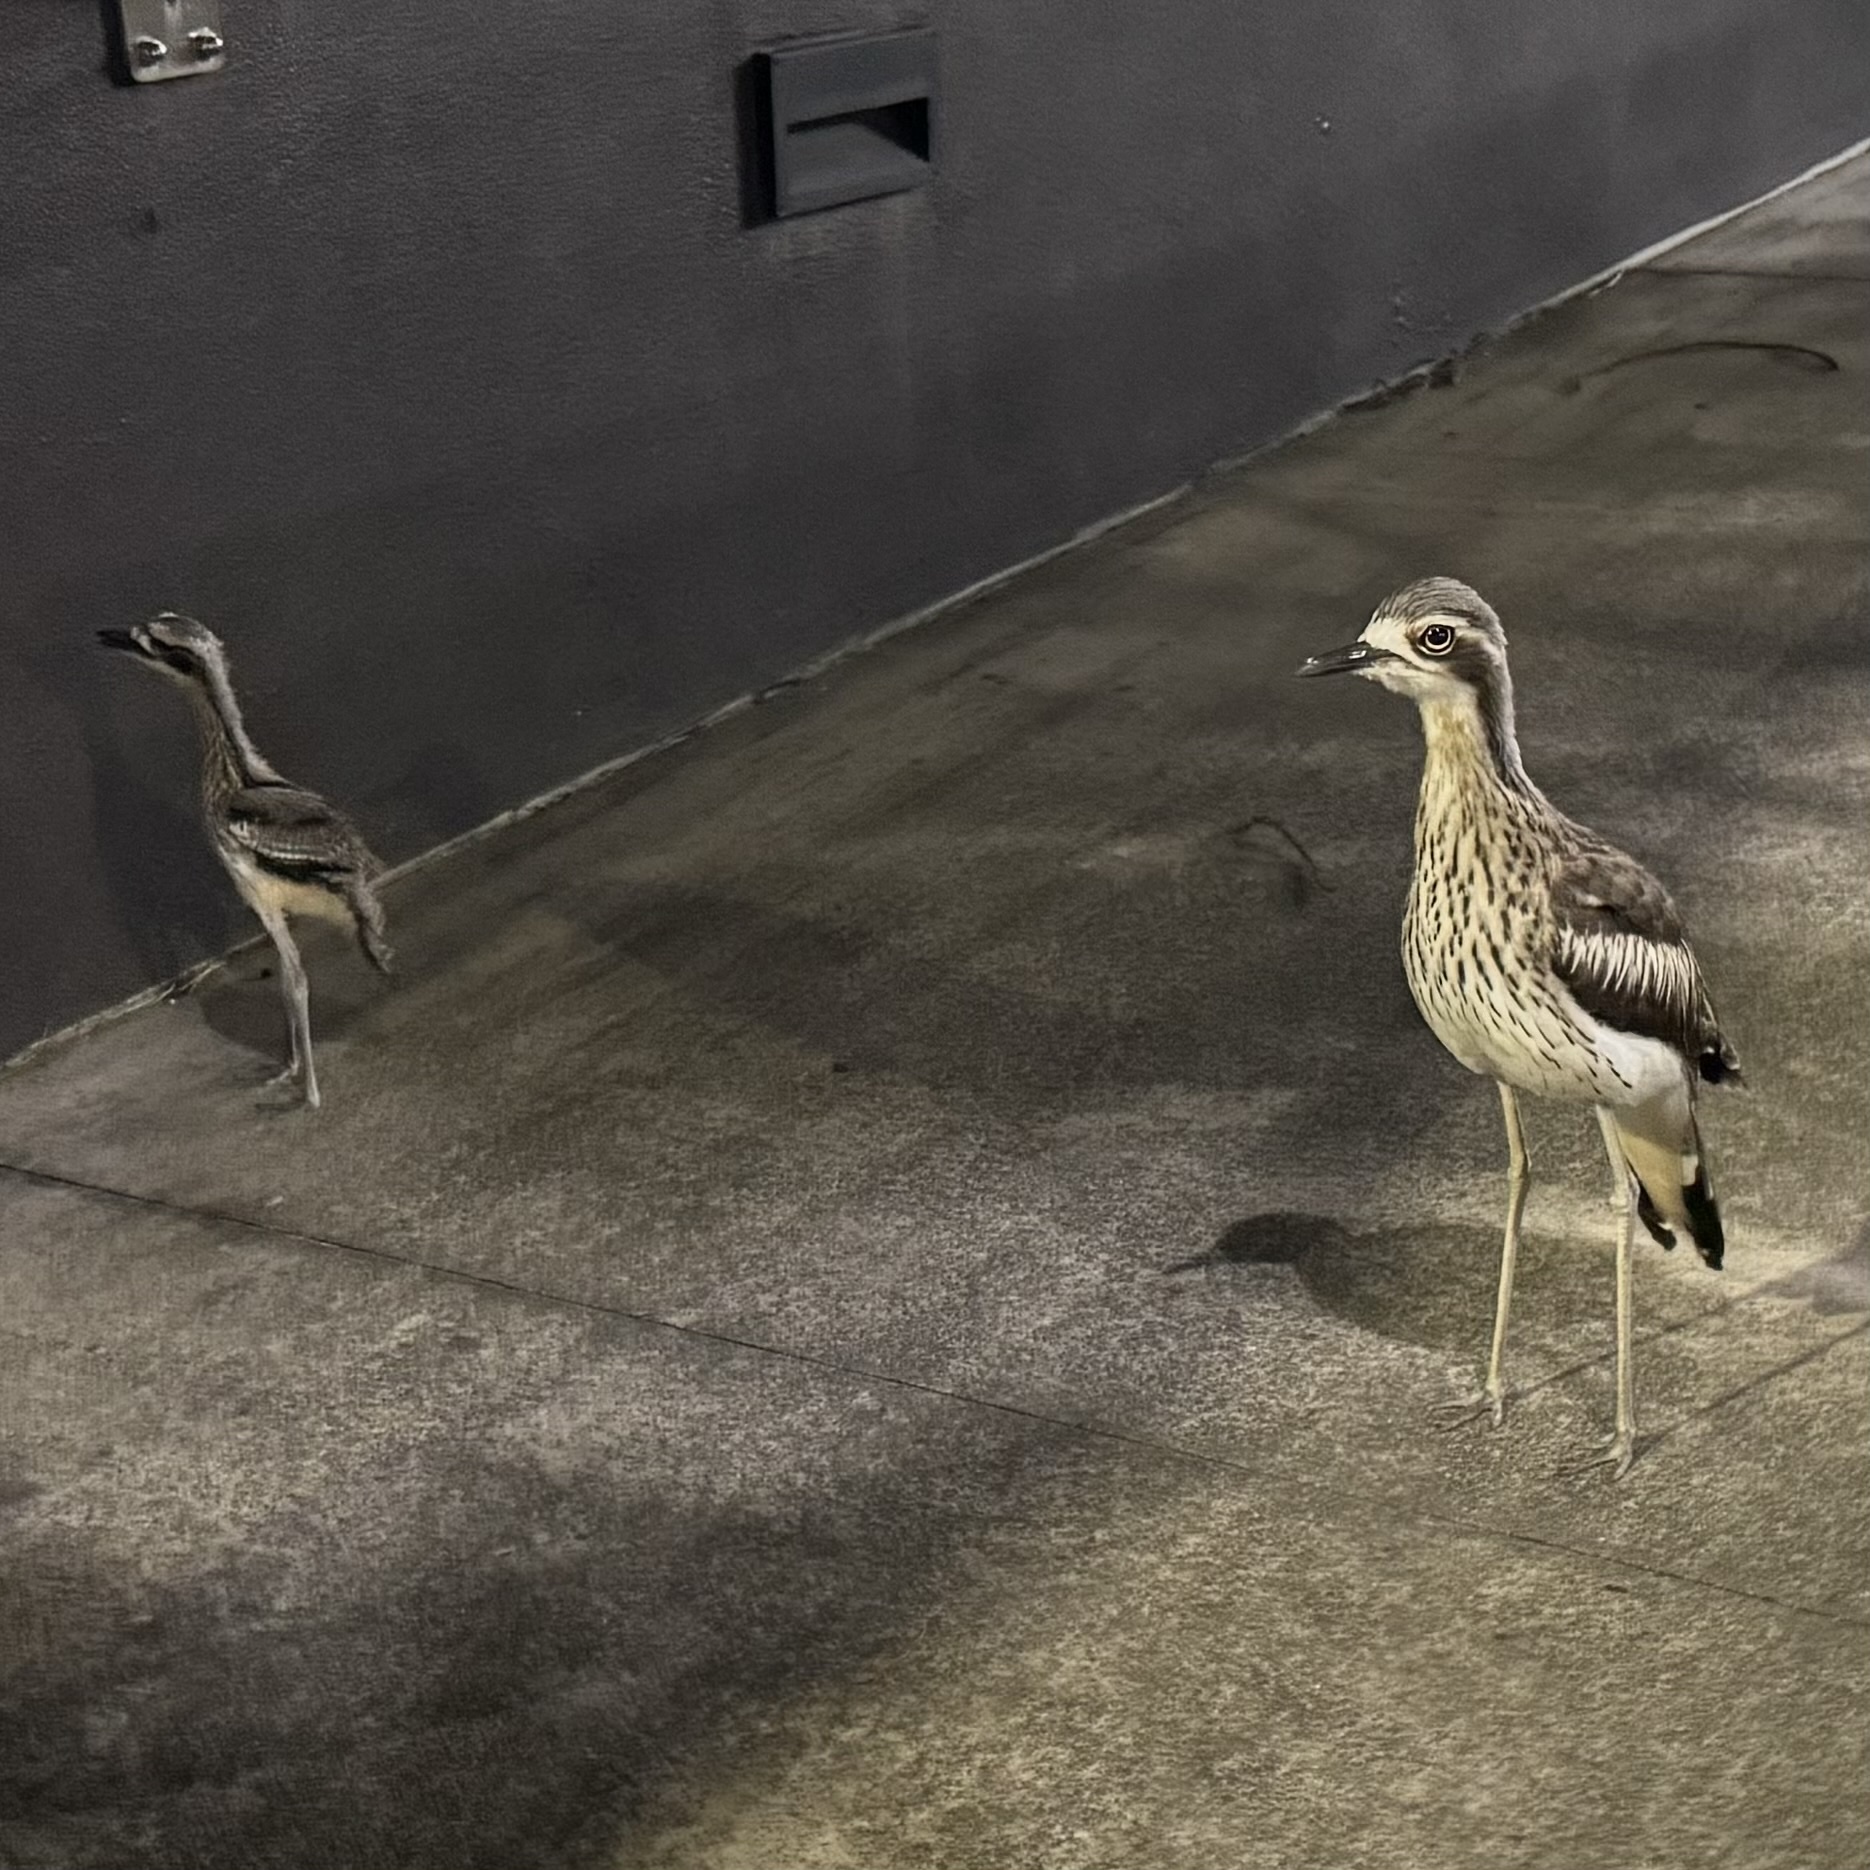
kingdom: Animalia
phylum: Chordata
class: Aves
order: Charadriiformes
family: Burhinidae
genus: Burhinus
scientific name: Burhinus grallarius
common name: Bush stone-curlew
